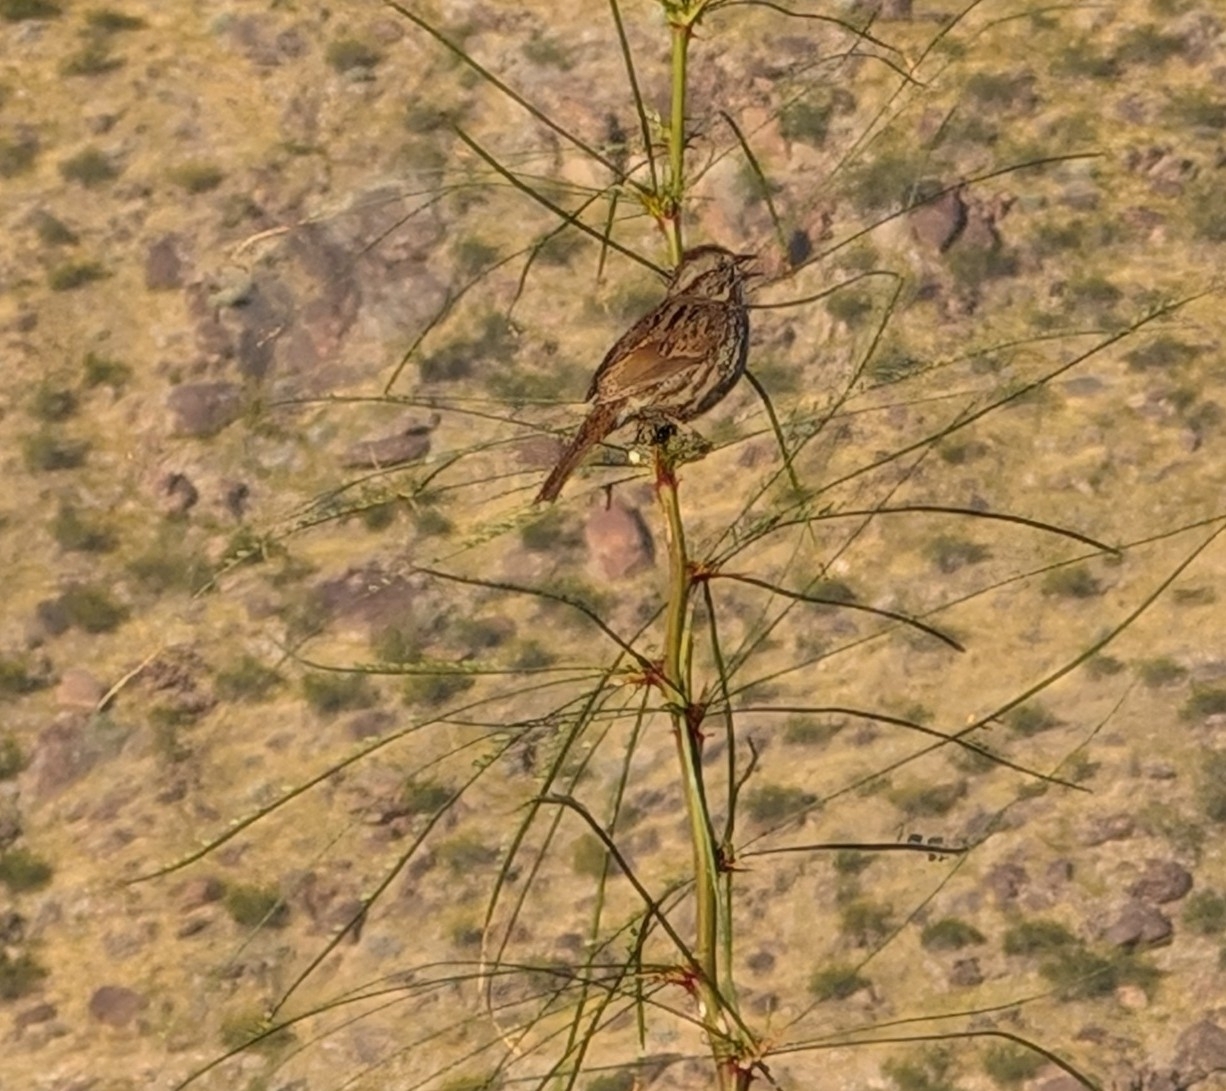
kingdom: Animalia
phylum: Chordata
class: Aves
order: Passeriformes
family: Passerellidae
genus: Melospiza
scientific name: Melospiza melodia
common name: Song sparrow
